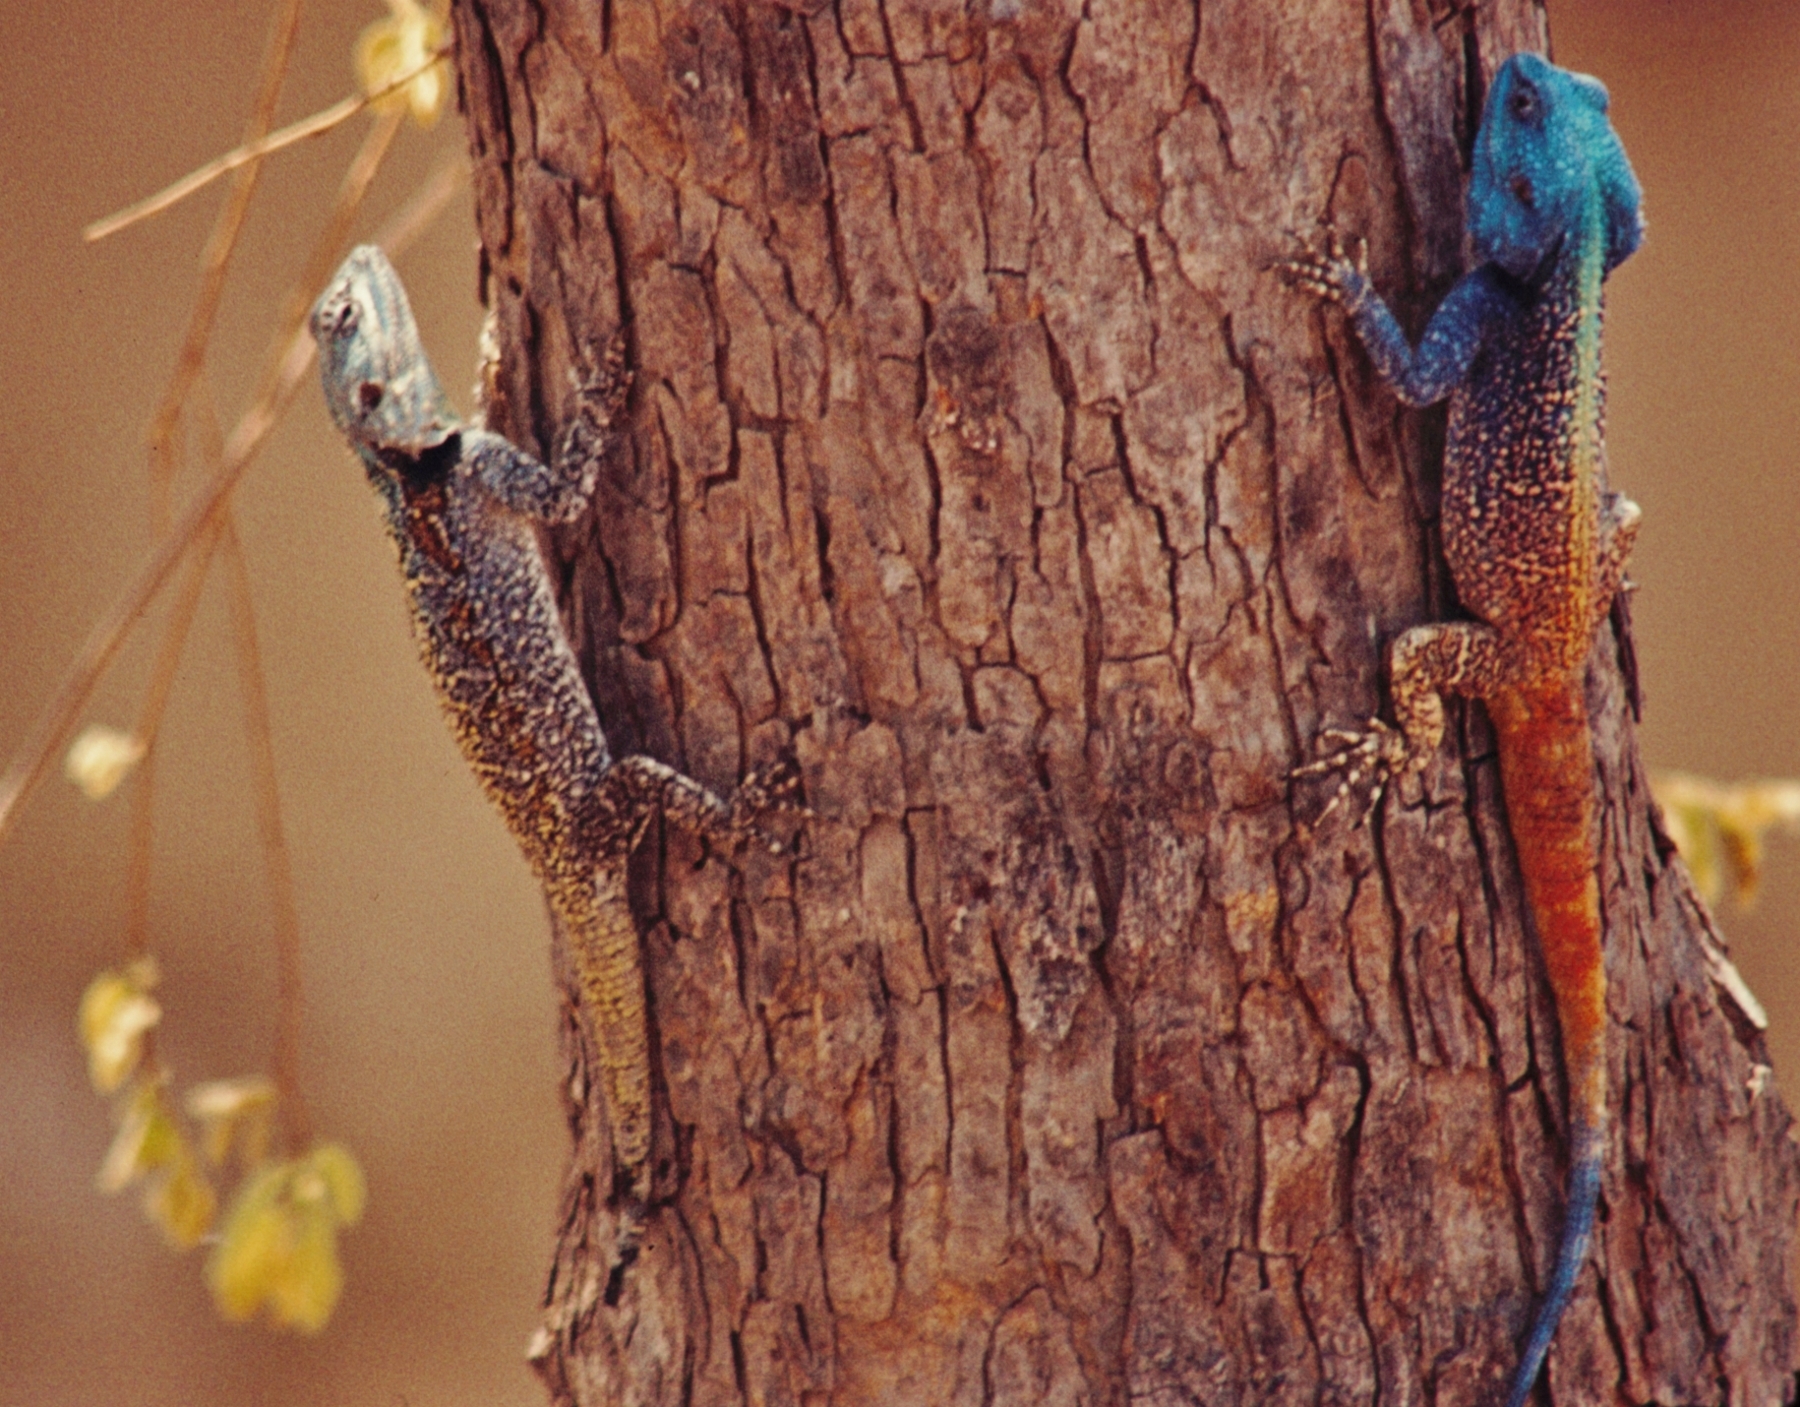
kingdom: Animalia
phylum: Chordata
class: Squamata
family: Agamidae
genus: Acanthocercus
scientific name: Acanthocercus
